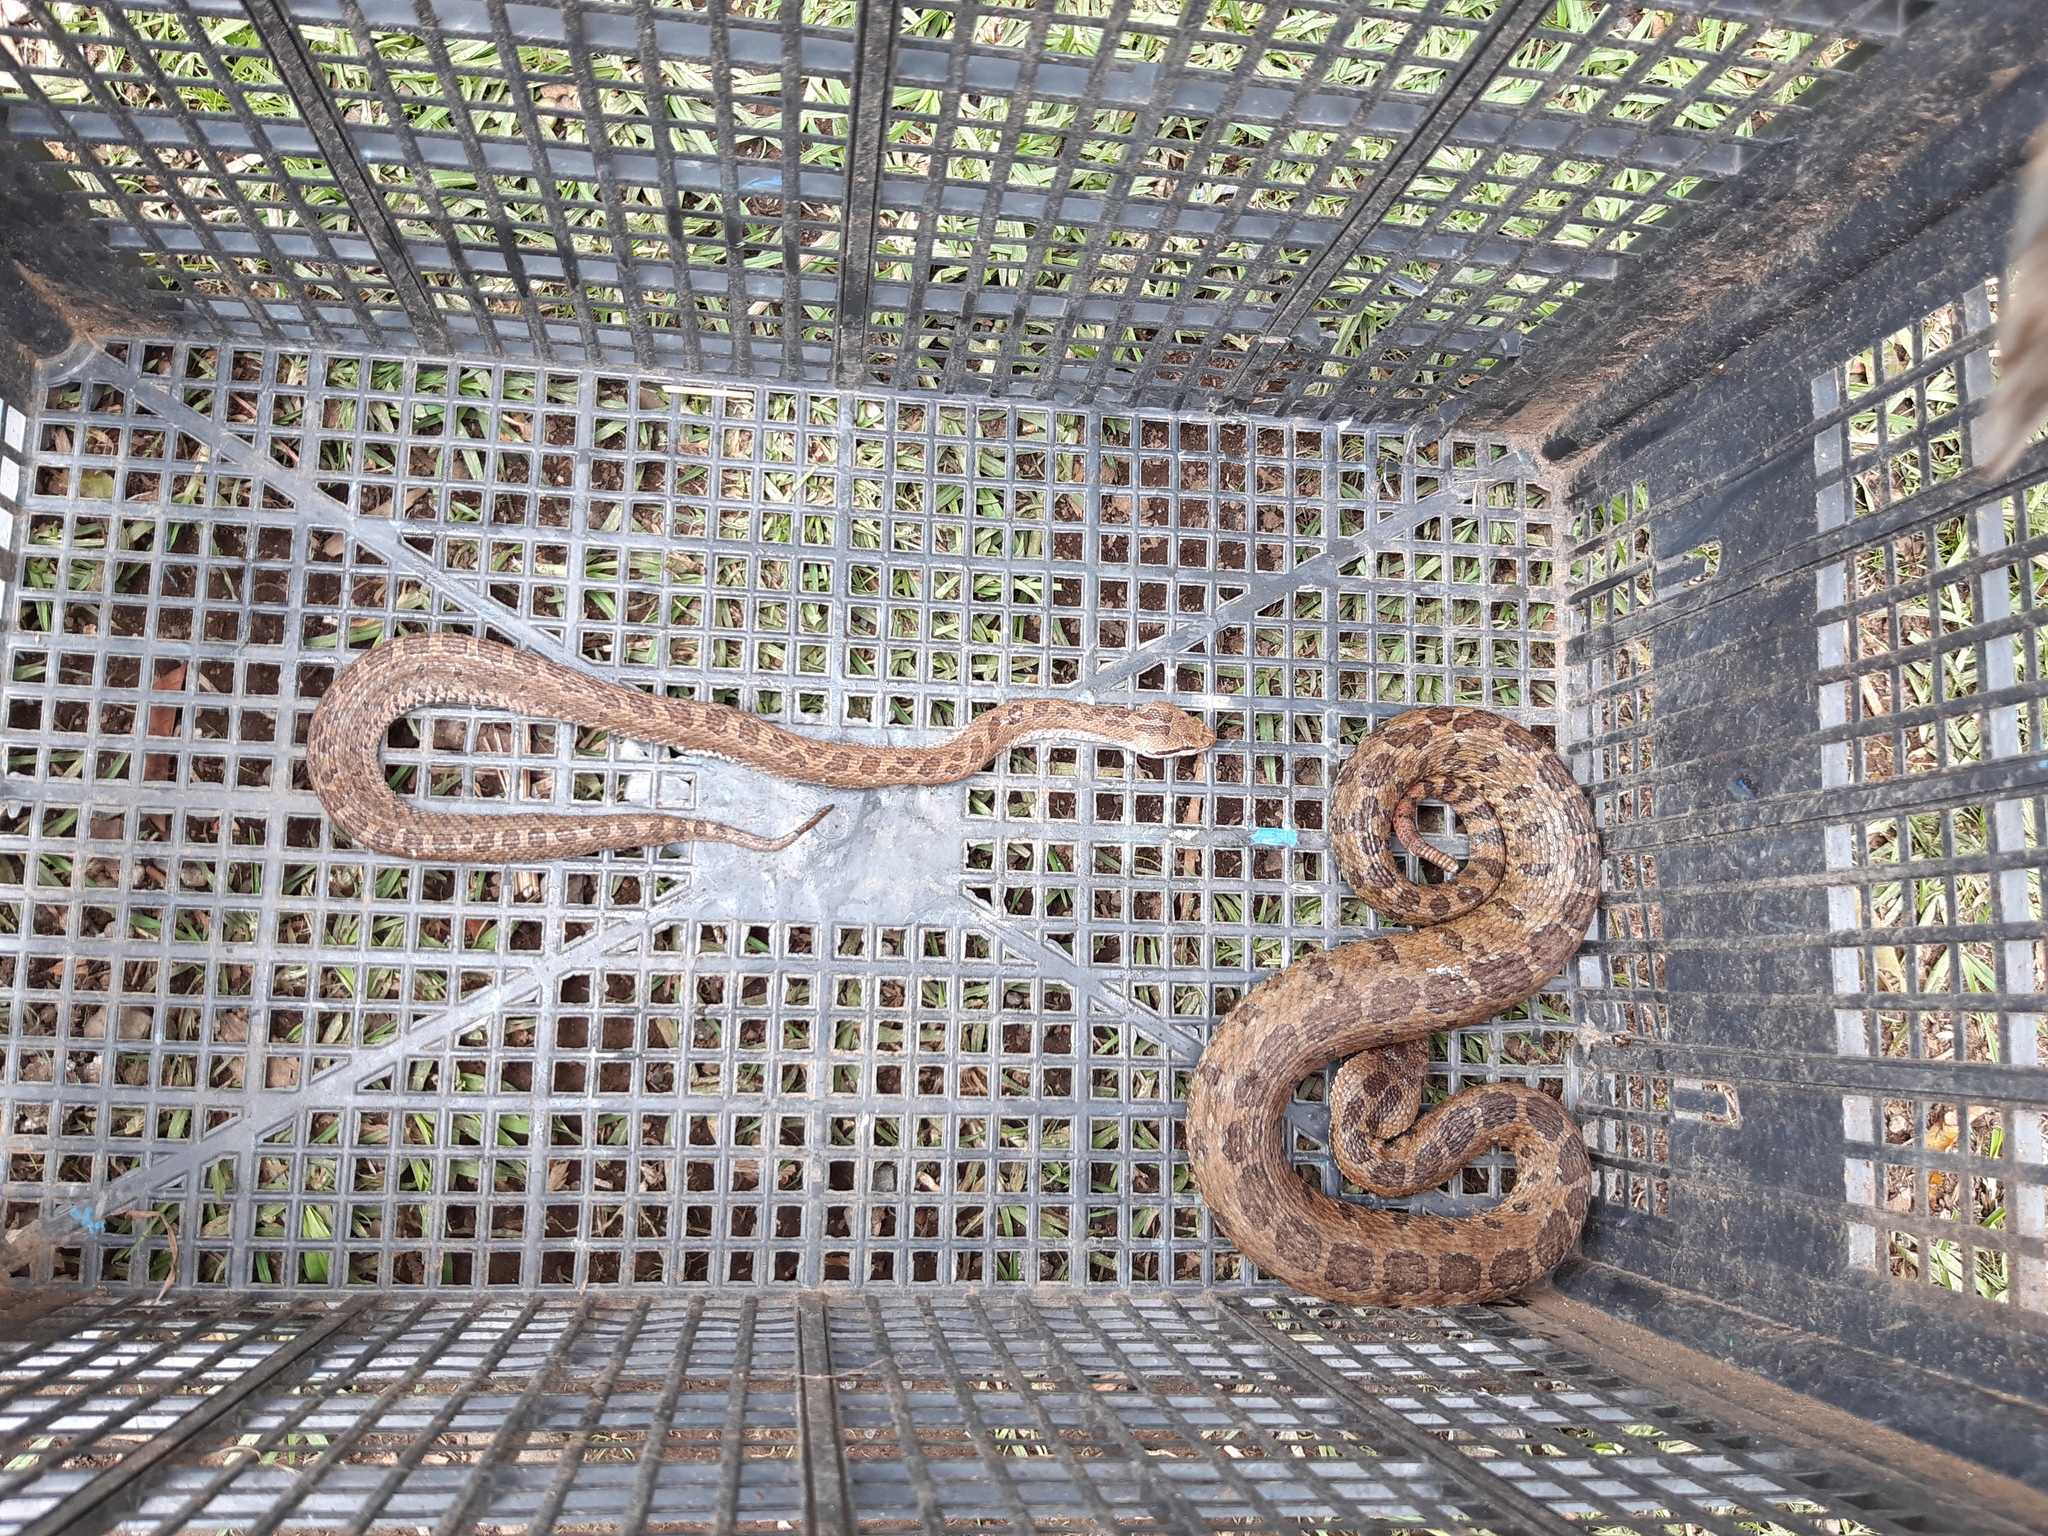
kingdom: Animalia
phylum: Chordata
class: Squamata
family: Viperidae
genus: Crotalus
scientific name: Crotalus armstrongi
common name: Mexican dusky rattlesnake
